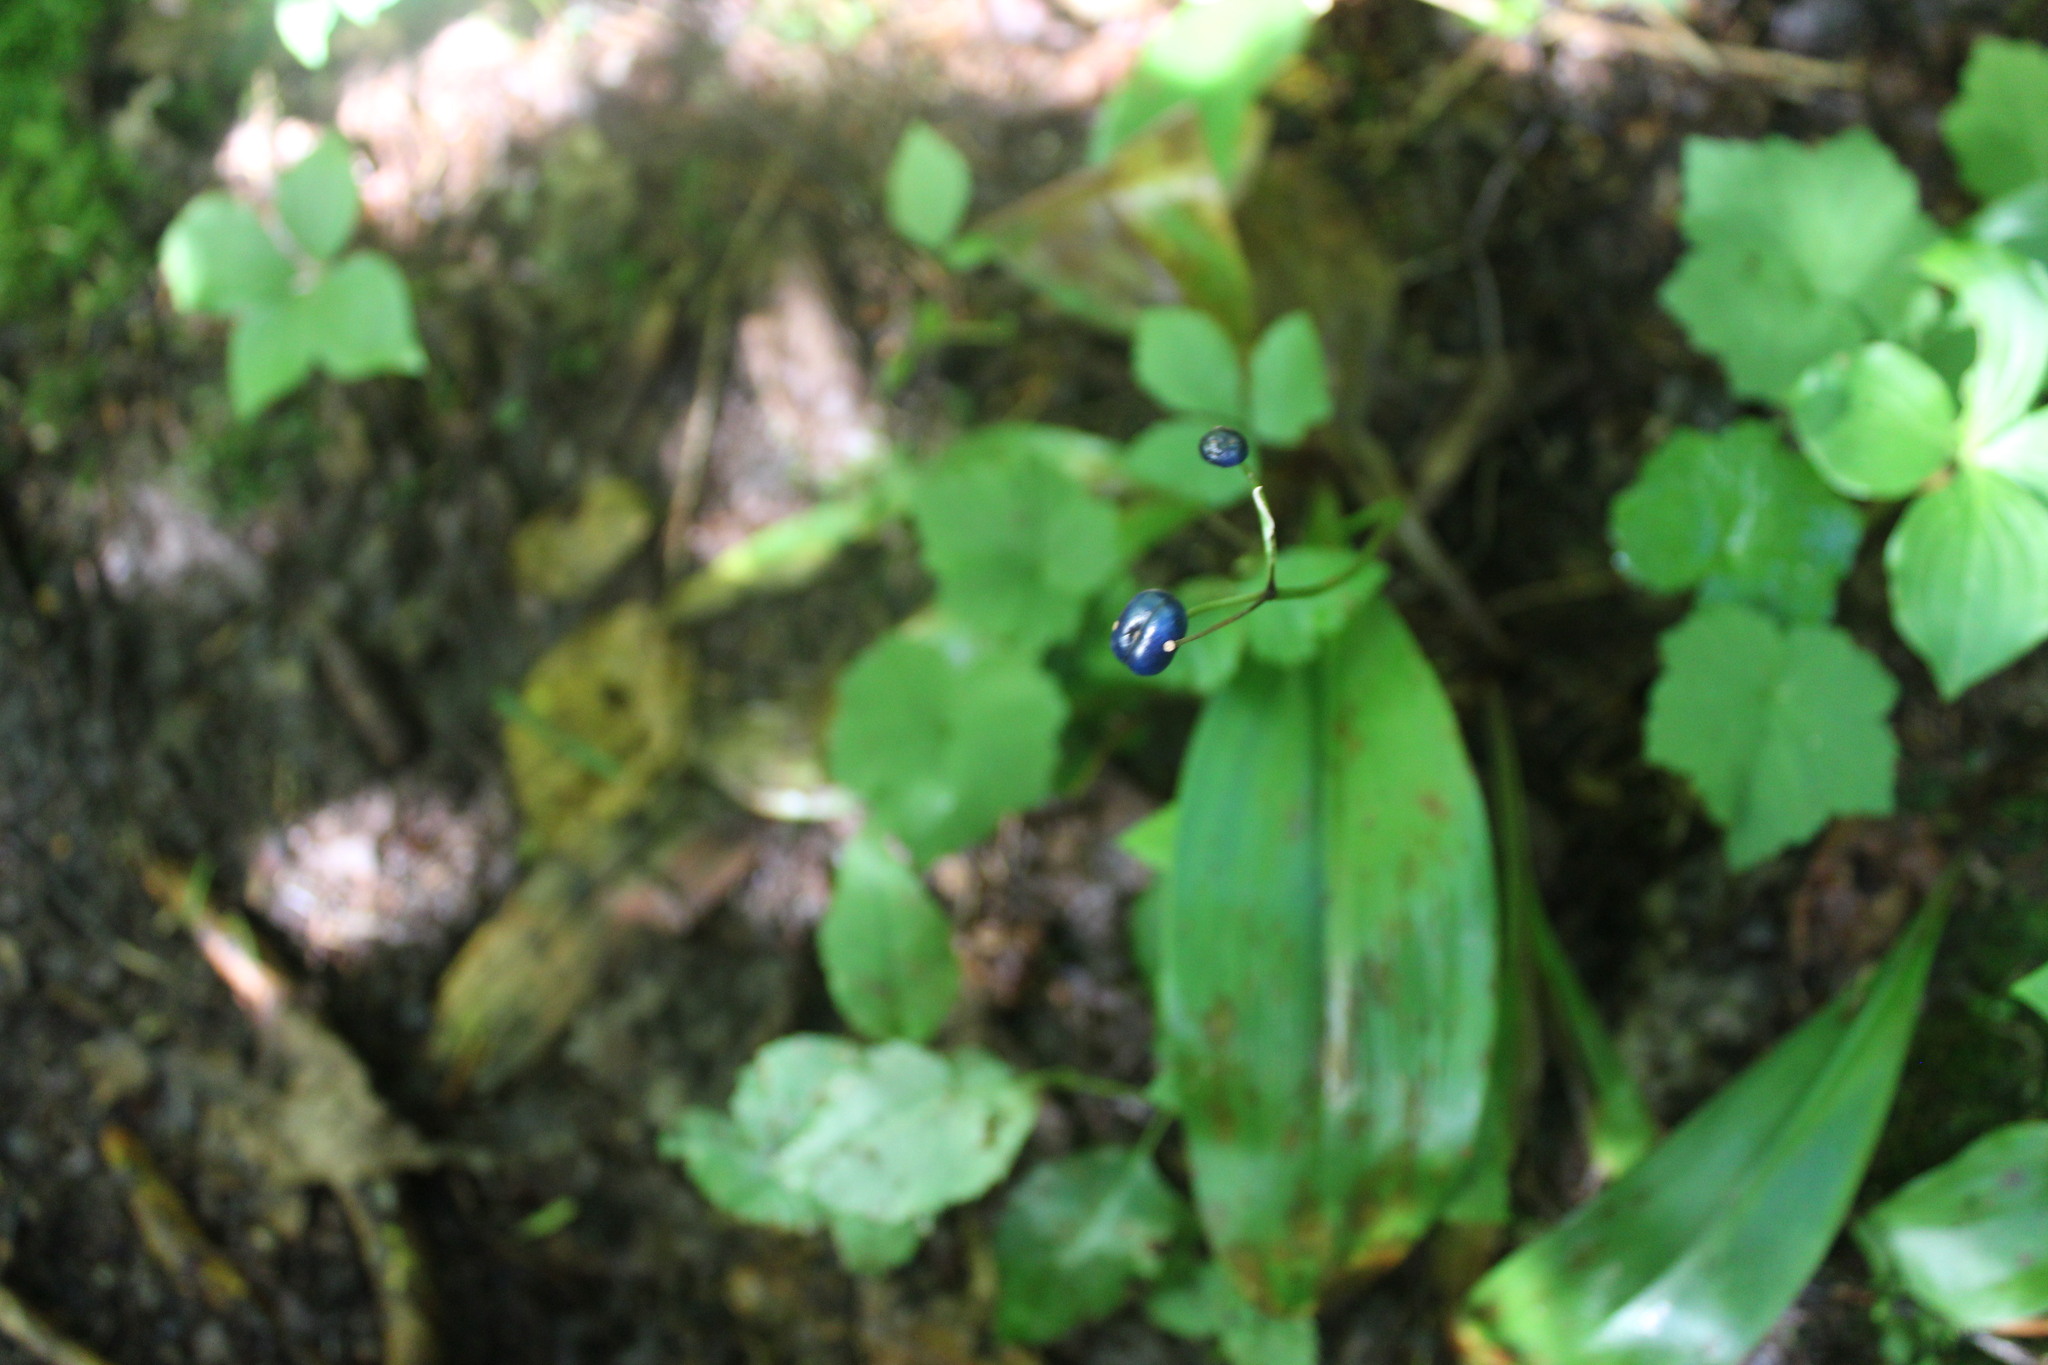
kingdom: Plantae
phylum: Tracheophyta
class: Liliopsida
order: Liliales
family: Liliaceae
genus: Clintonia
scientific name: Clintonia borealis
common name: Yellow clintonia
